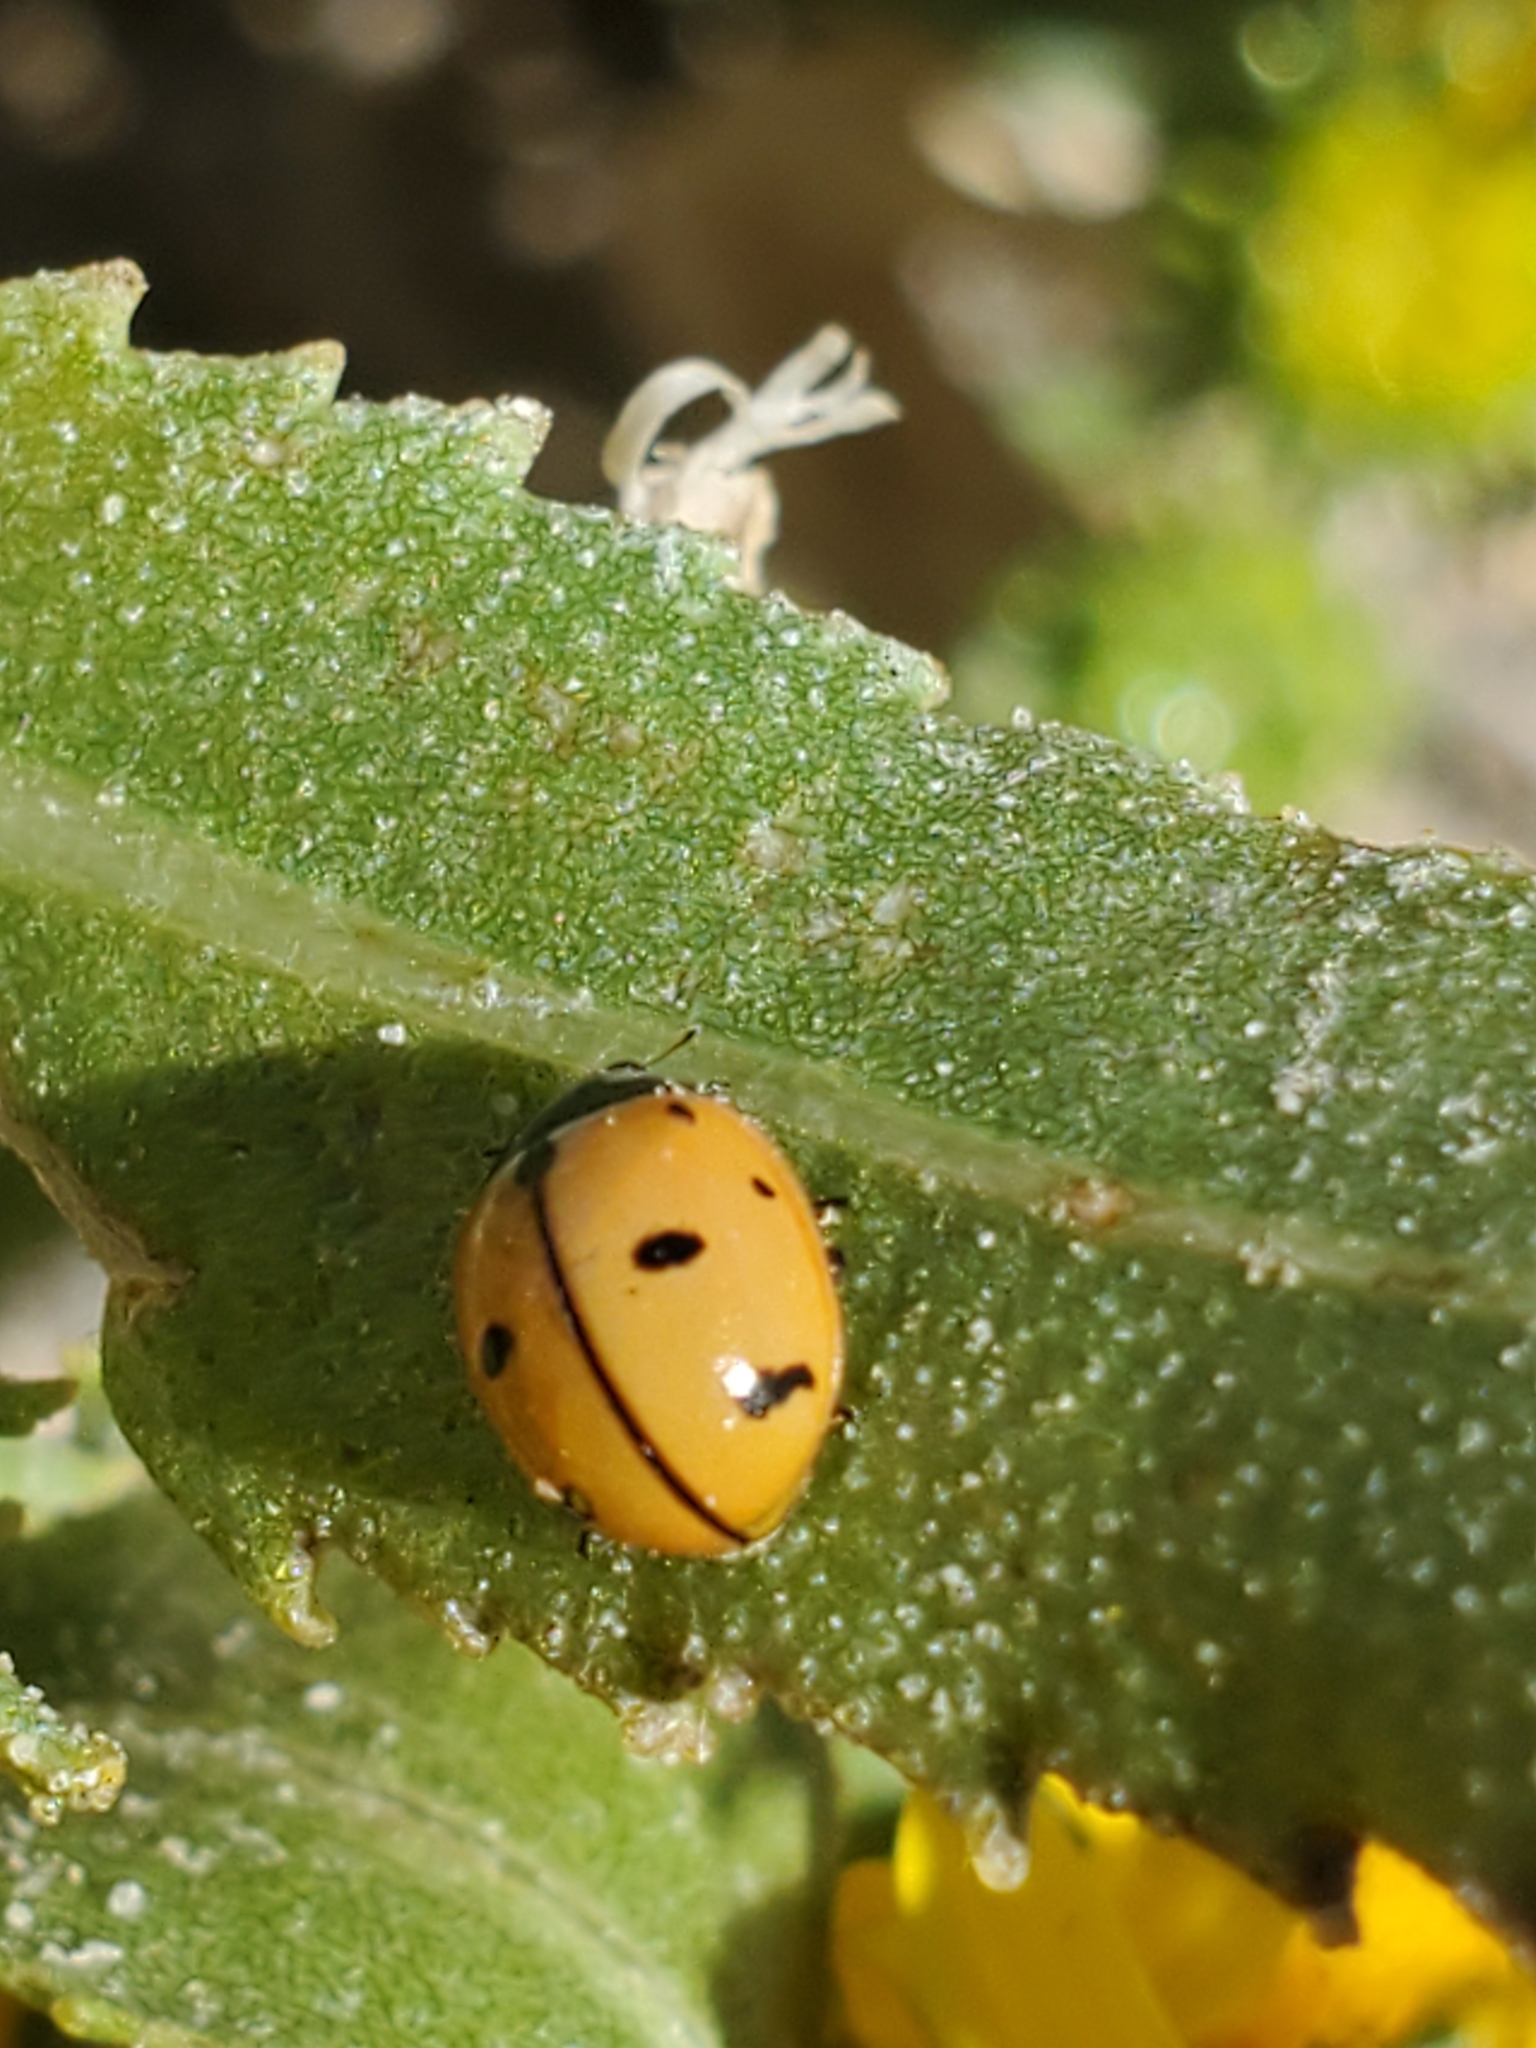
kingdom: Animalia
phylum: Arthropoda
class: Insecta
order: Coleoptera
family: Coccinellidae
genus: Coccinella
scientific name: Coccinella novemnotata
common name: Nine-spotted lady beetle
